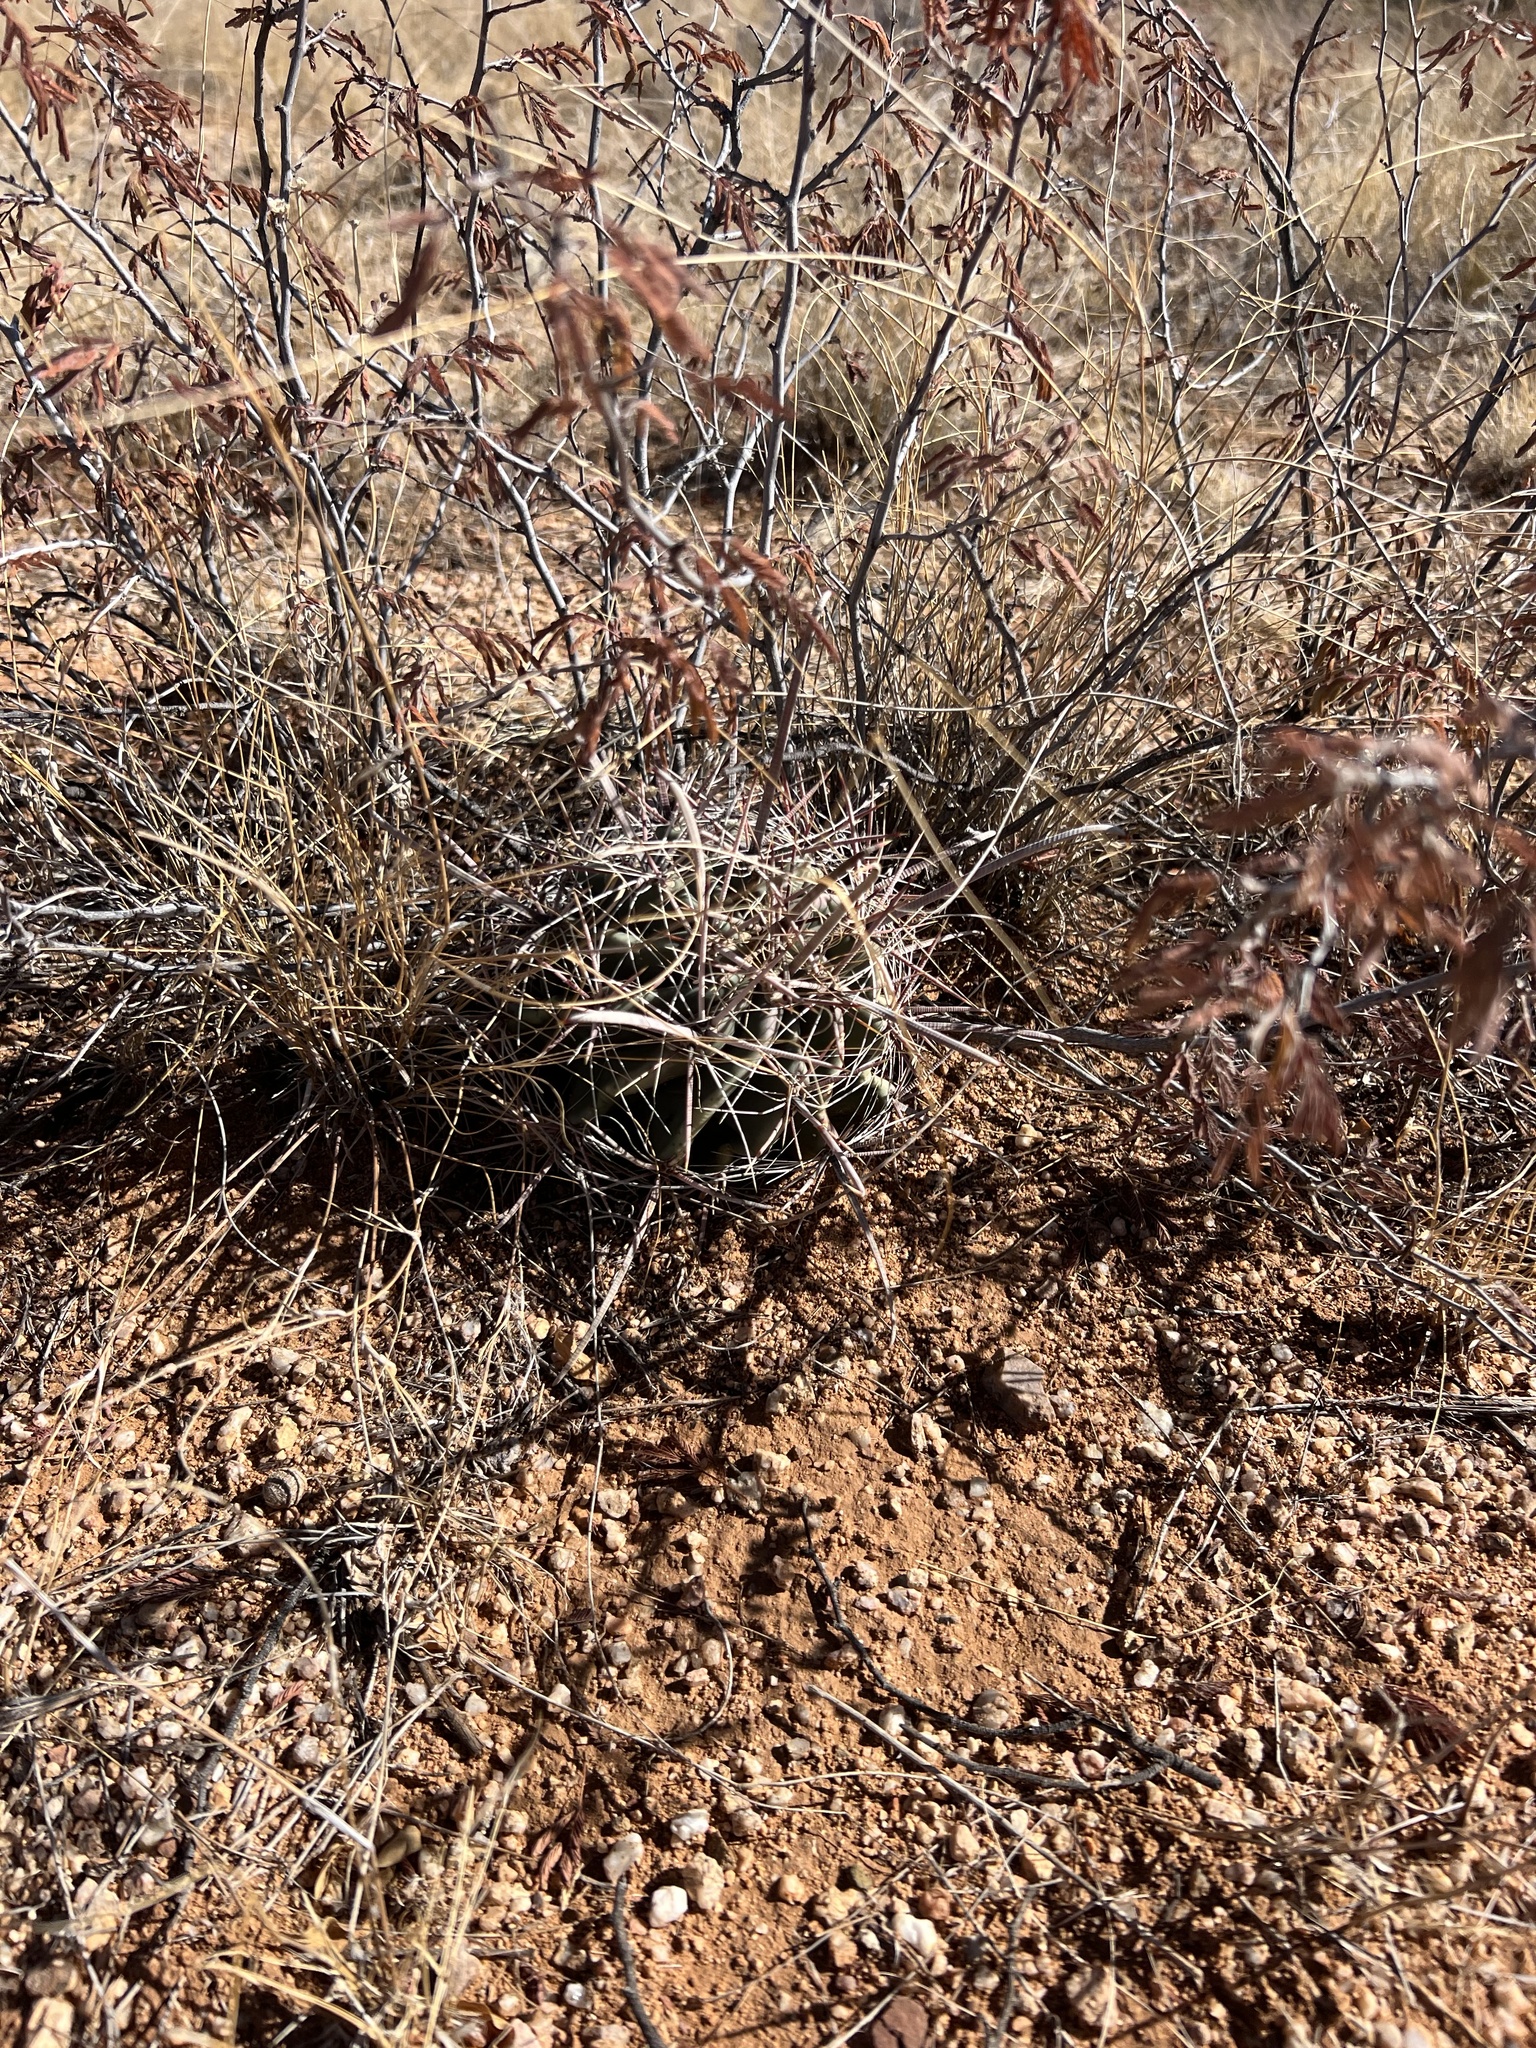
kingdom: Plantae
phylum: Tracheophyta
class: Magnoliopsida
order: Caryophyllales
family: Cactaceae
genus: Ferocactus
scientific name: Ferocactus wislizeni
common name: Candy barrel cactus
